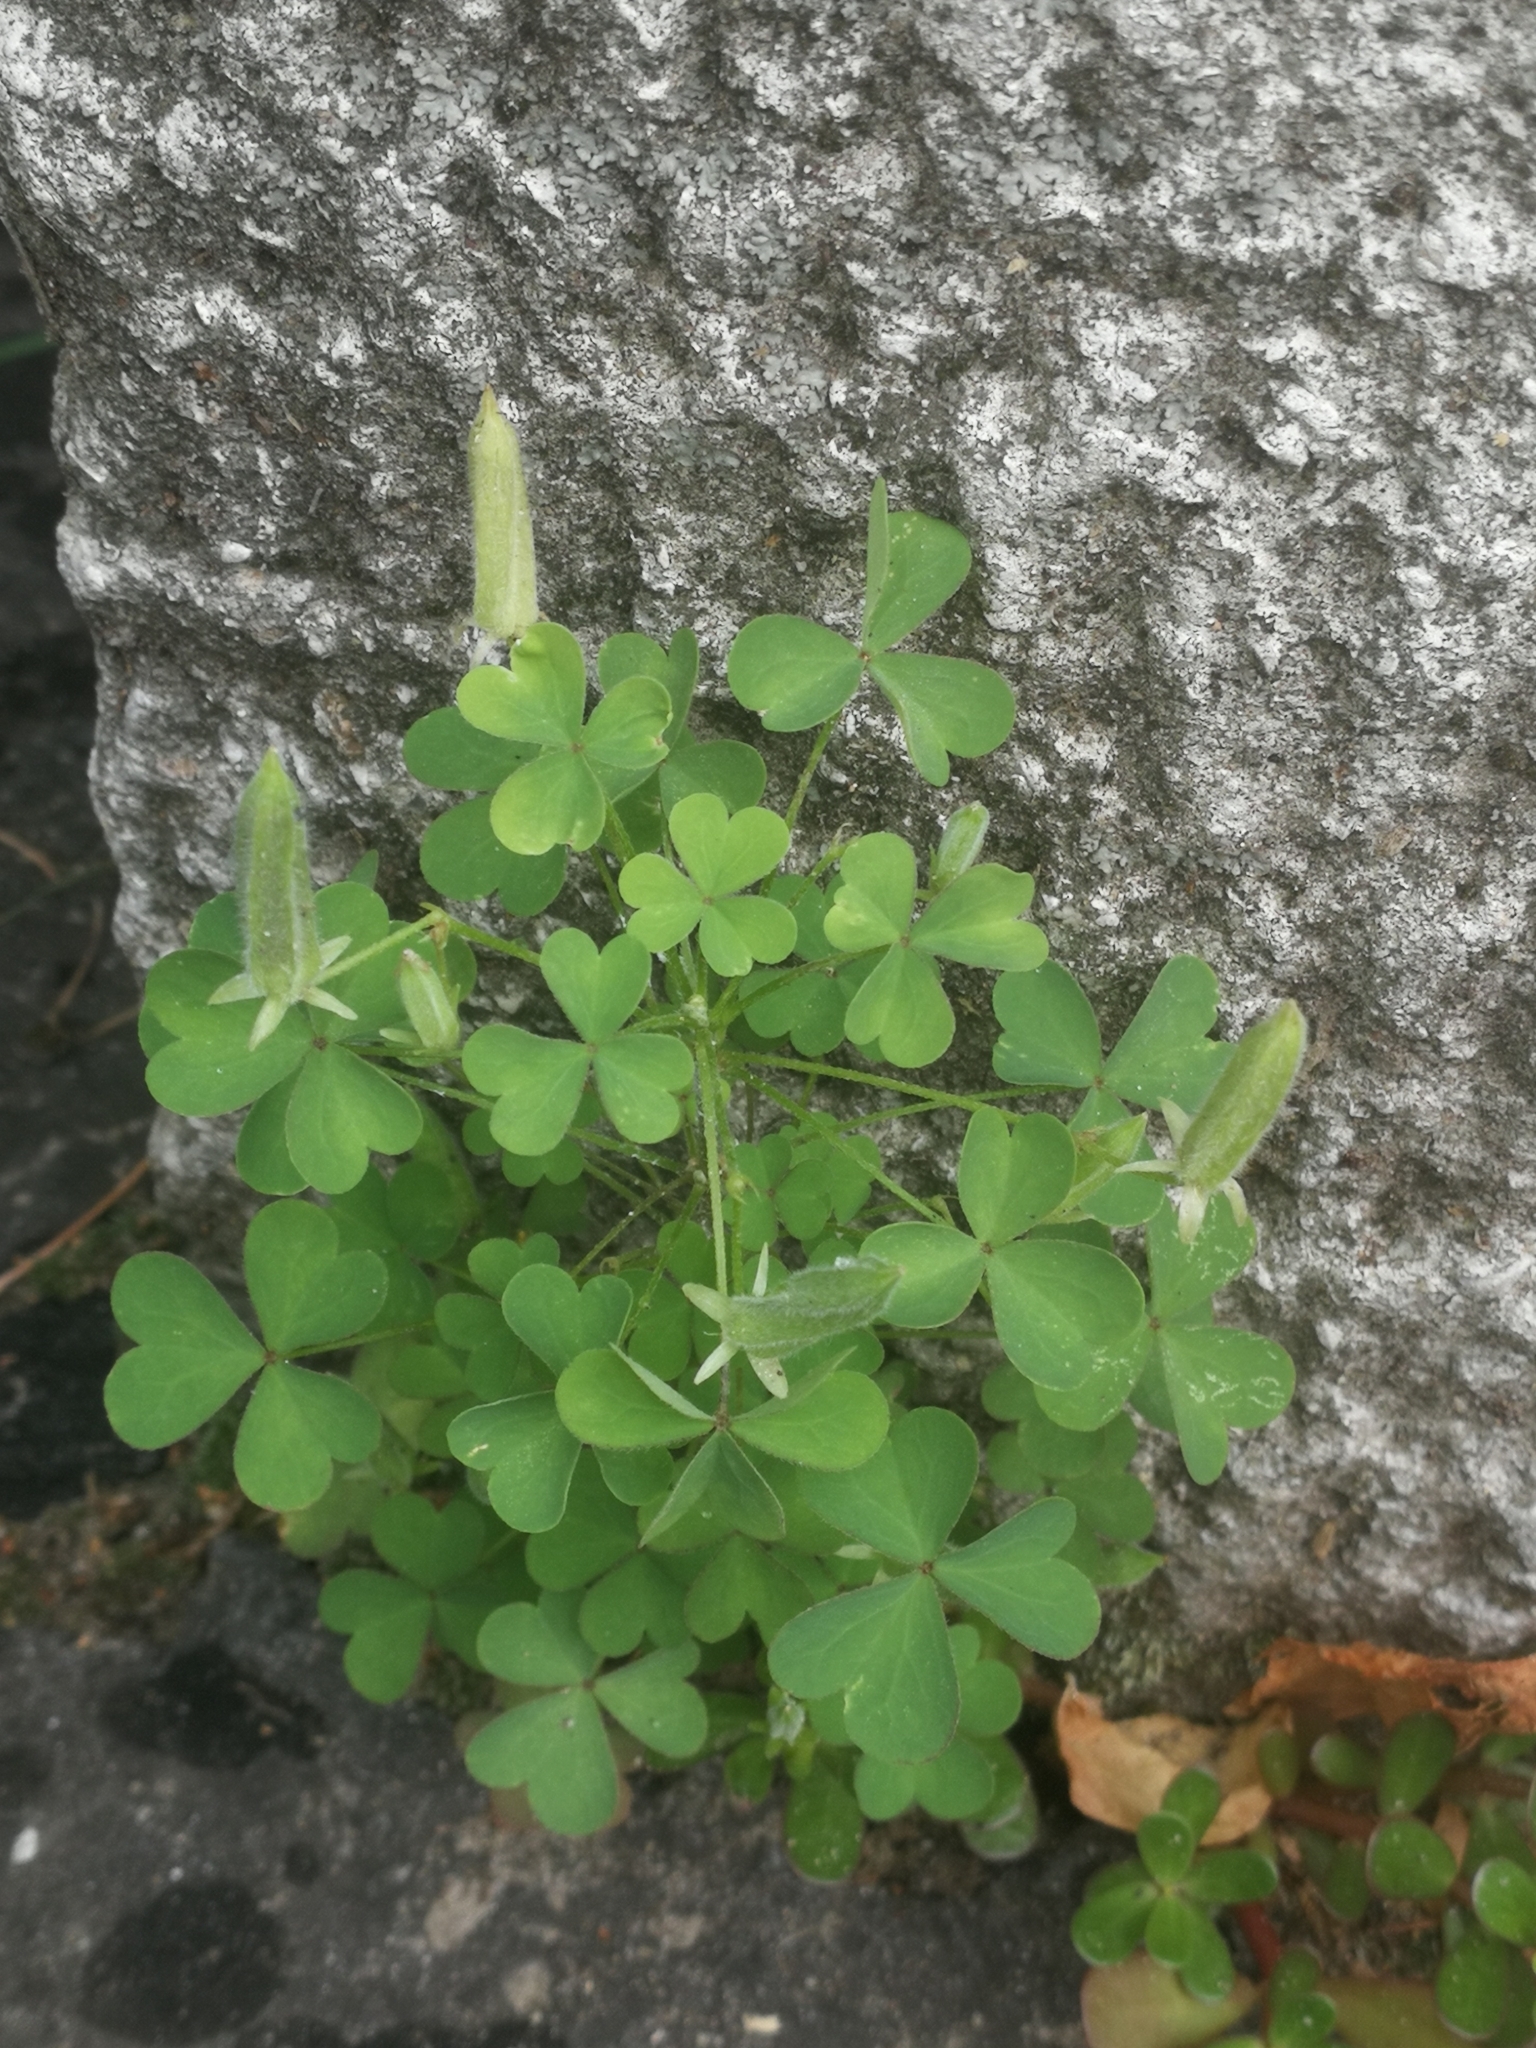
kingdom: Plantae
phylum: Tracheophyta
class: Magnoliopsida
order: Oxalidales
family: Oxalidaceae
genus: Oxalis
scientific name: Oxalis dillenii
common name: Sussex yellow-sorrel
